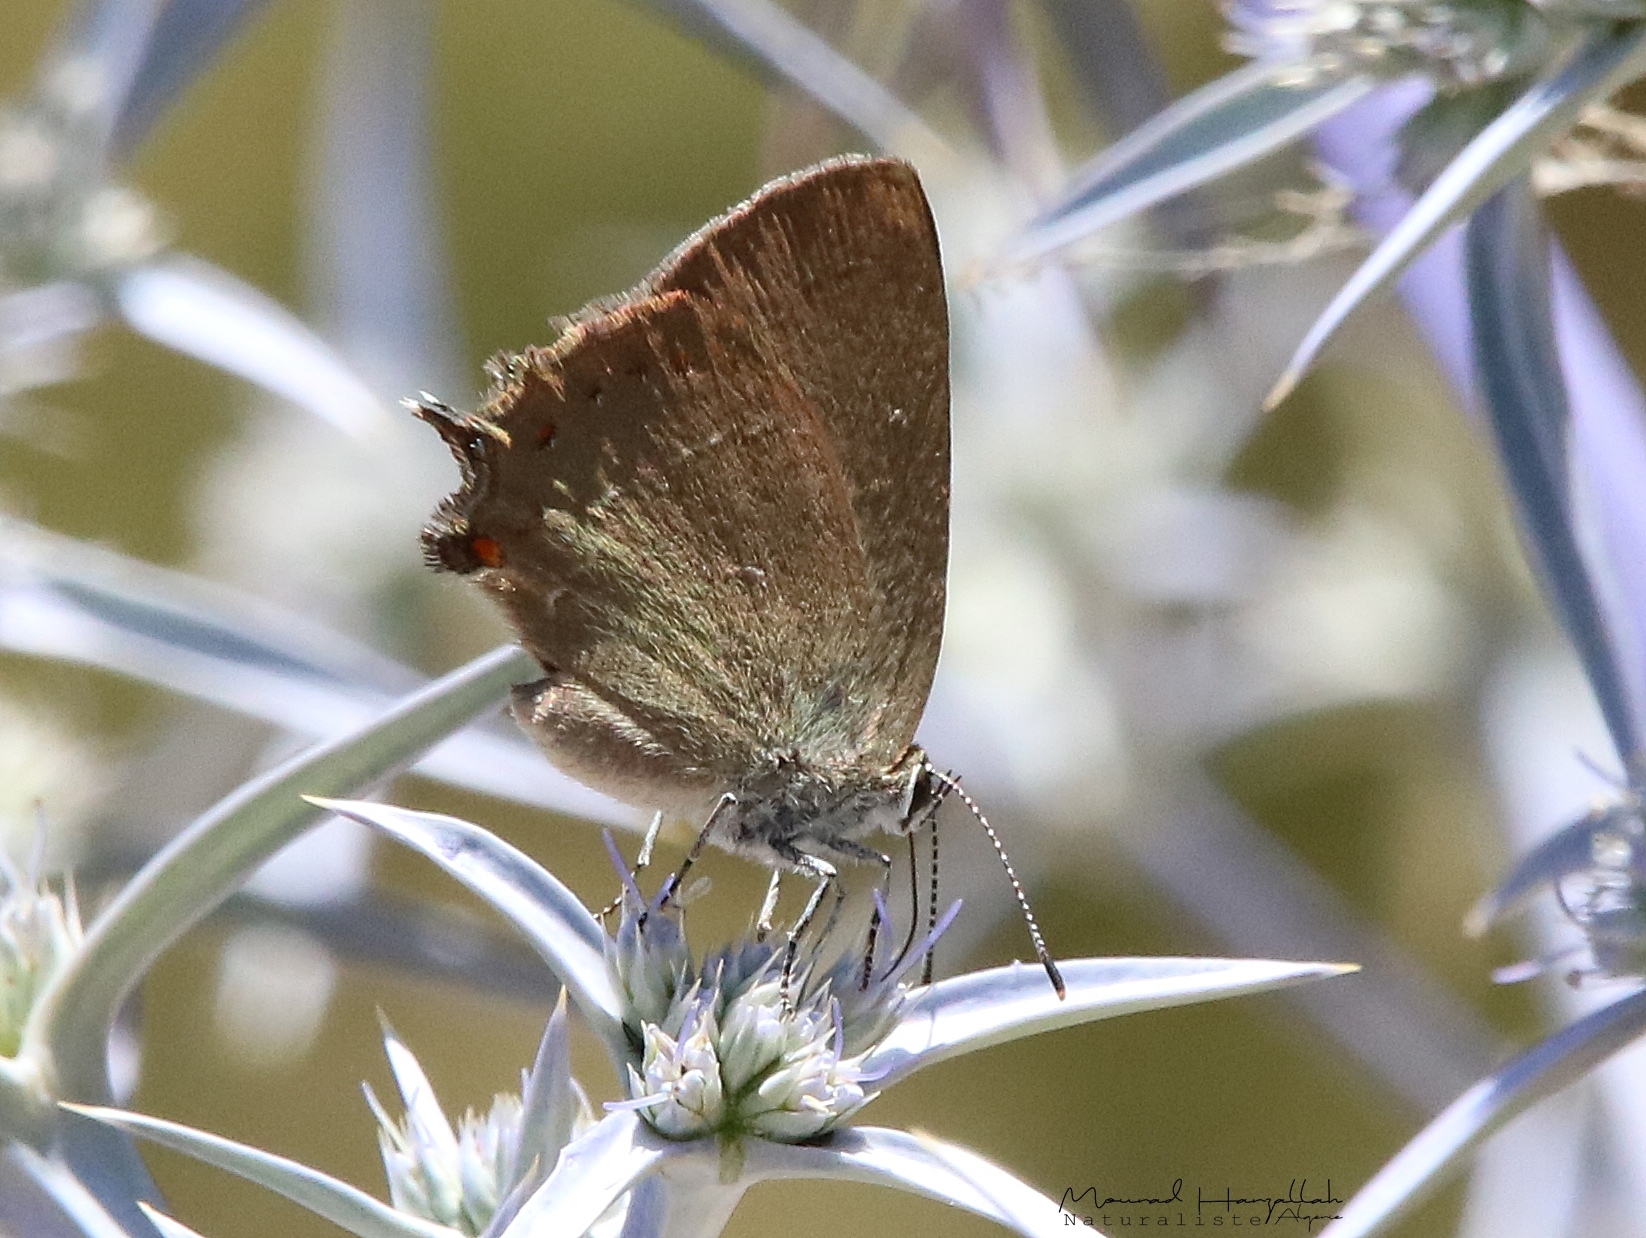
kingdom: Animalia
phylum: Arthropoda
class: Insecta
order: Lepidoptera
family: Lycaenidae
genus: Fixsenia
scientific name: Fixsenia esculi
